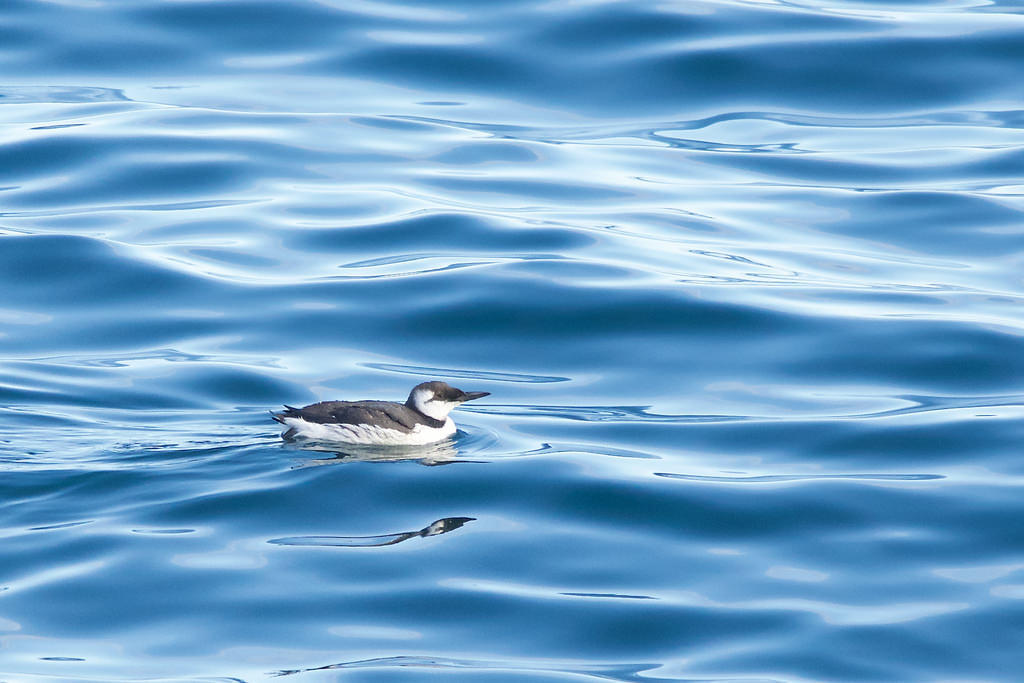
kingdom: Animalia
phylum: Chordata
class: Aves
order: Charadriiformes
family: Alcidae
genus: Uria
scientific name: Uria aalge
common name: Common murre
